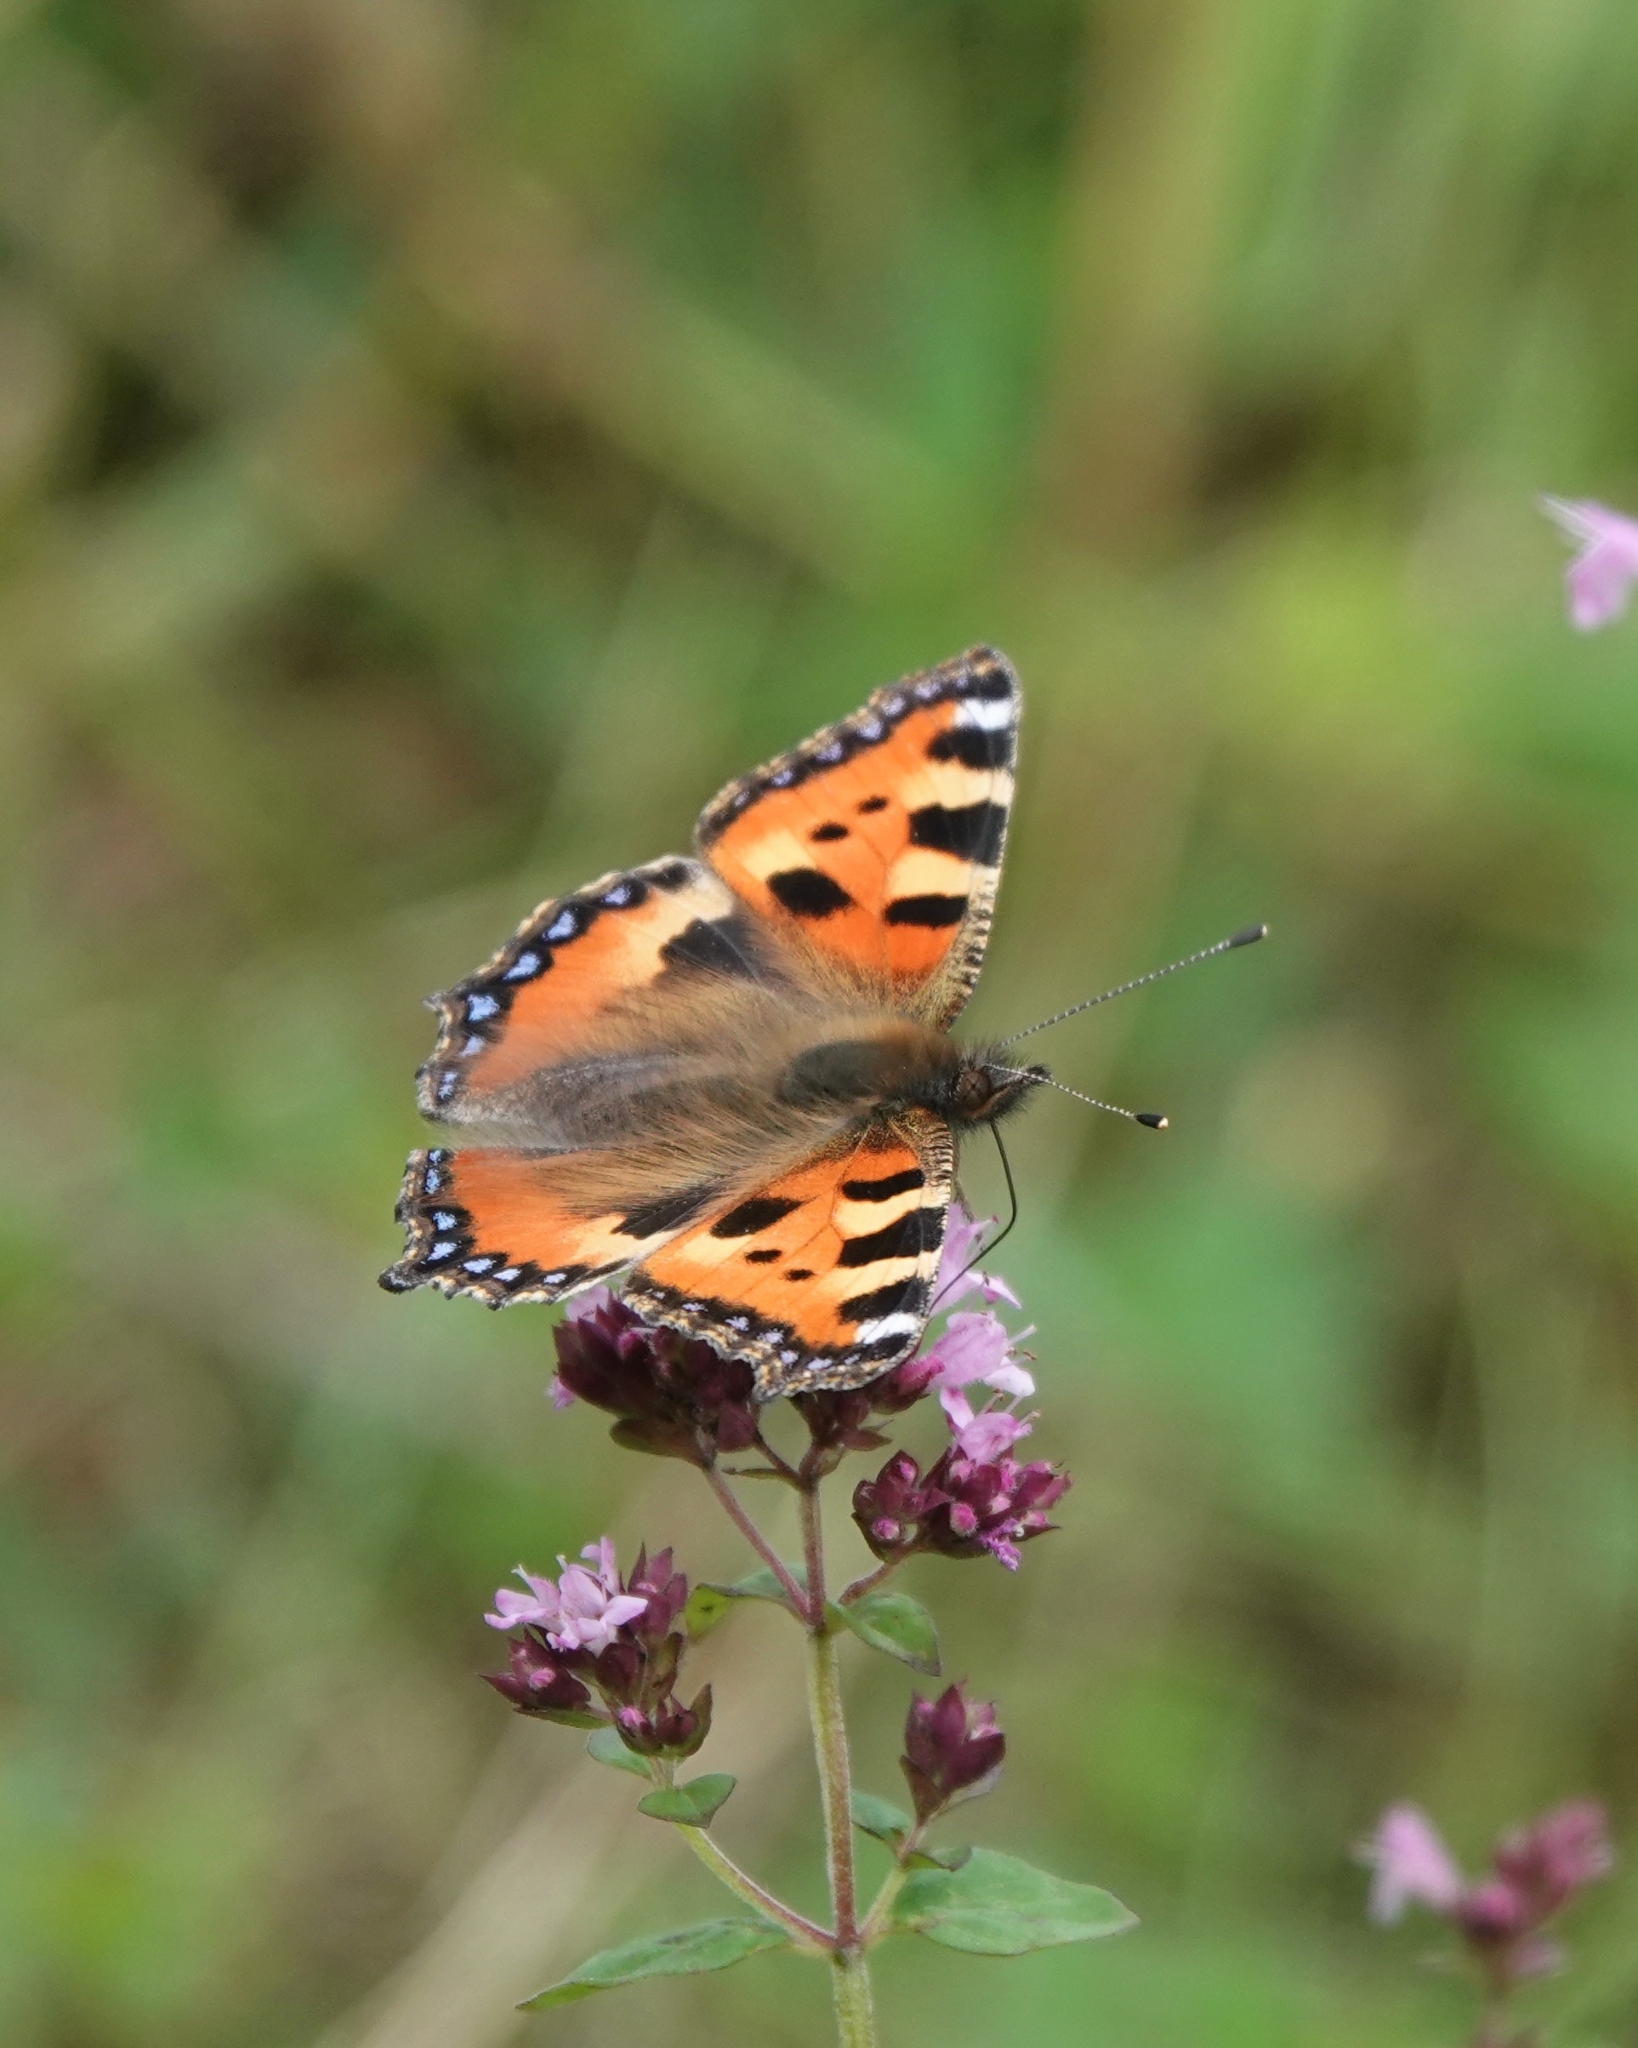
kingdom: Animalia
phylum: Arthropoda
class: Insecta
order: Lepidoptera
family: Nymphalidae
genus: Aglais
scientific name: Aglais urticae
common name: Small tortoiseshell
